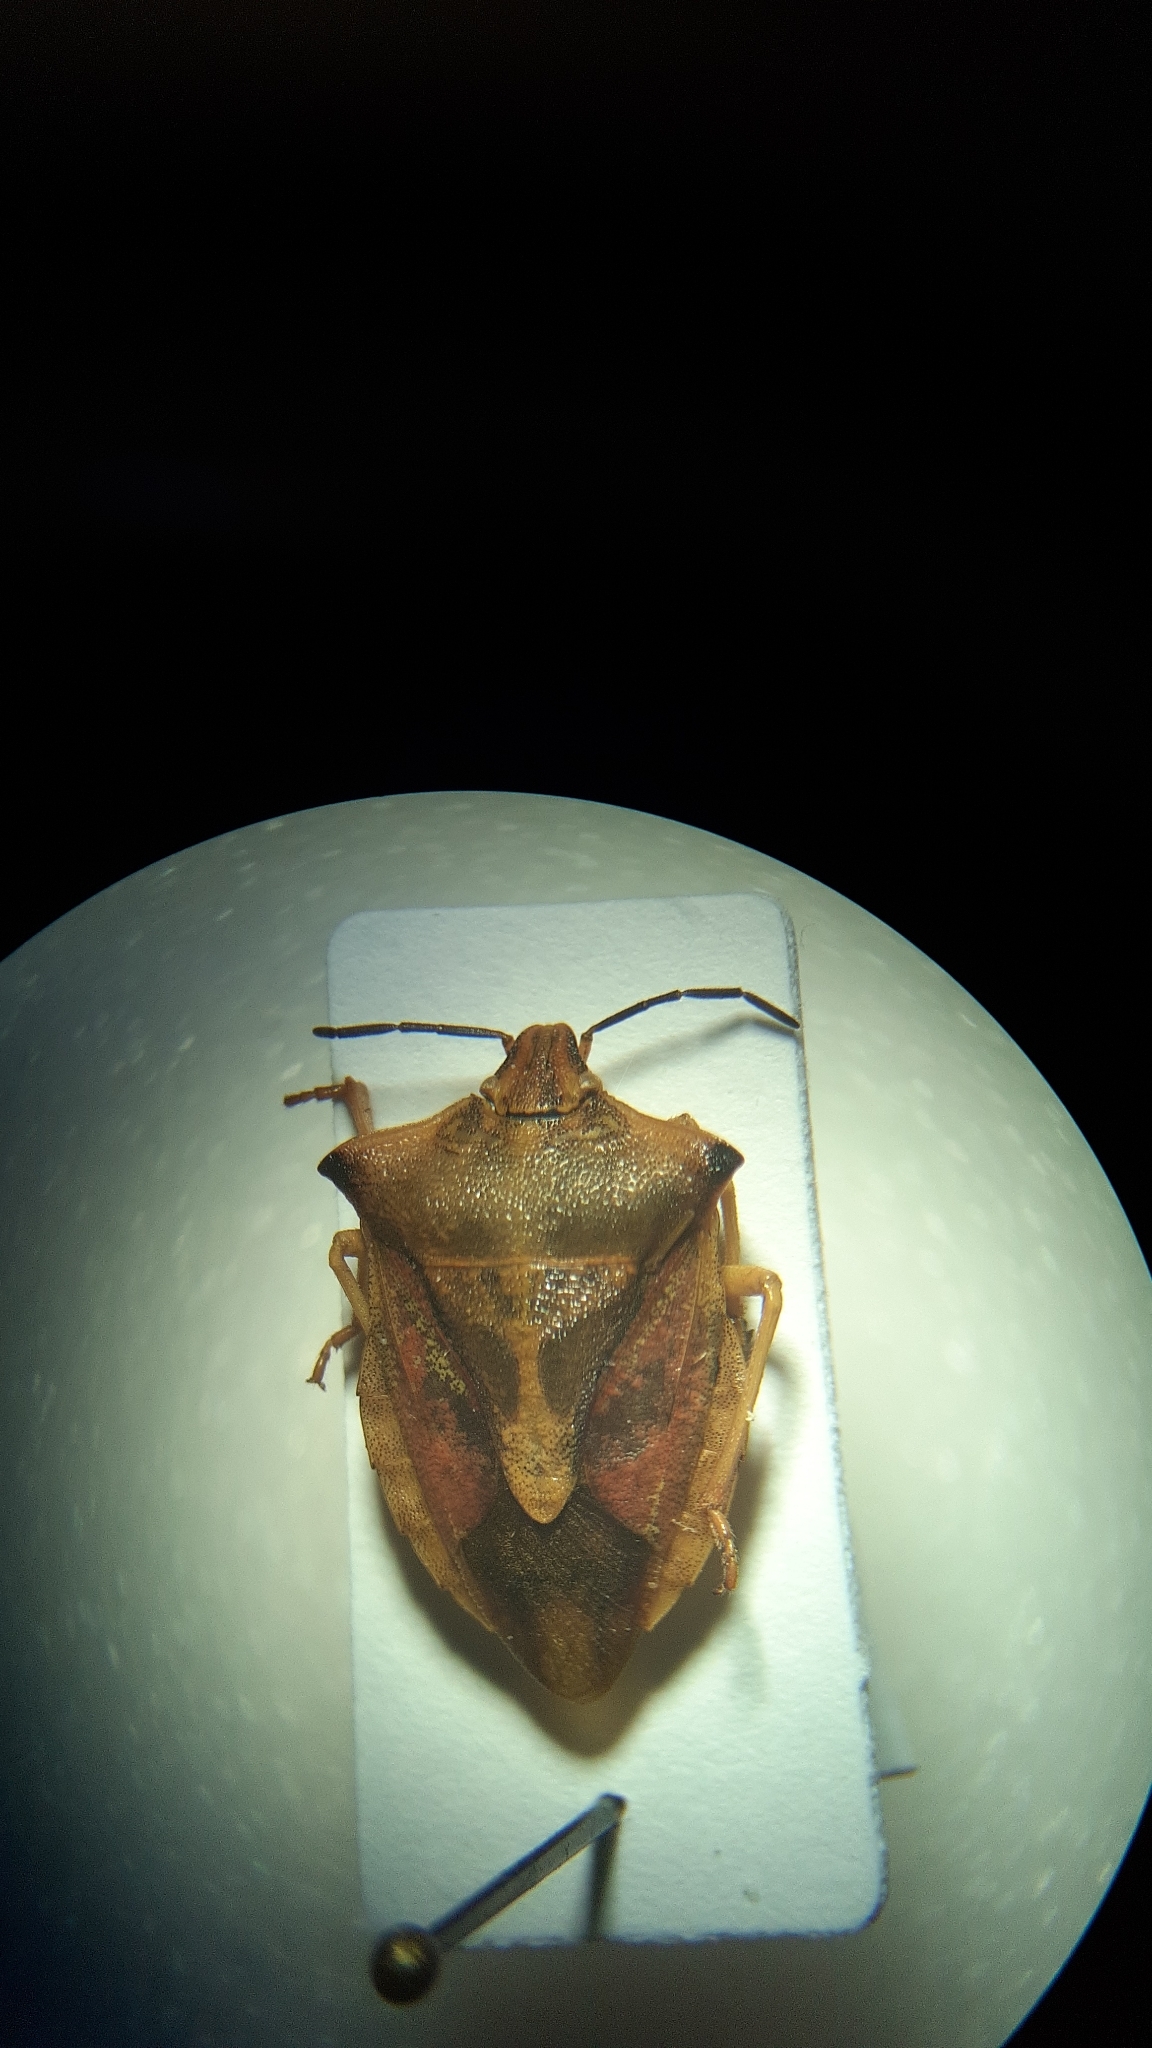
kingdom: Animalia
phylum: Arthropoda
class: Insecta
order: Hemiptera
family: Pentatomidae
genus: Carpocoris
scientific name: Carpocoris fuscispinus
